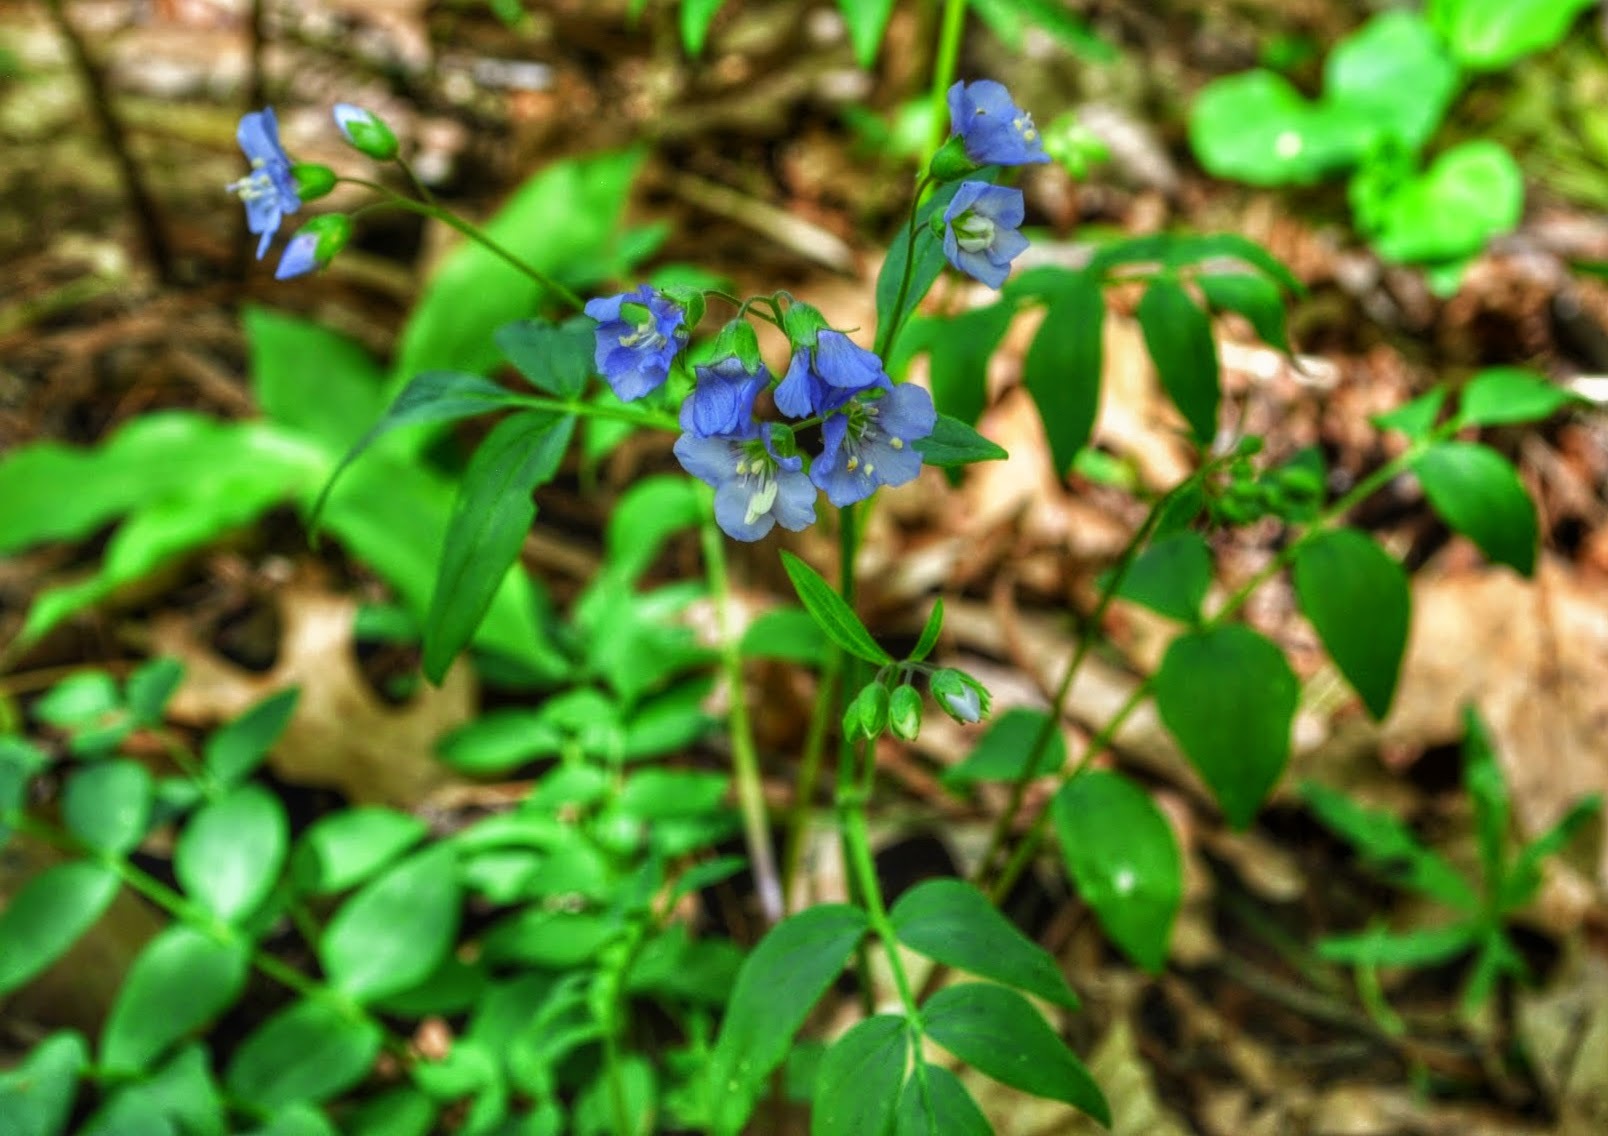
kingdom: Plantae
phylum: Tracheophyta
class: Magnoliopsida
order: Ericales
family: Polemoniaceae
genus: Polemonium
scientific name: Polemonium reptans
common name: Creeping jacob's-ladder
